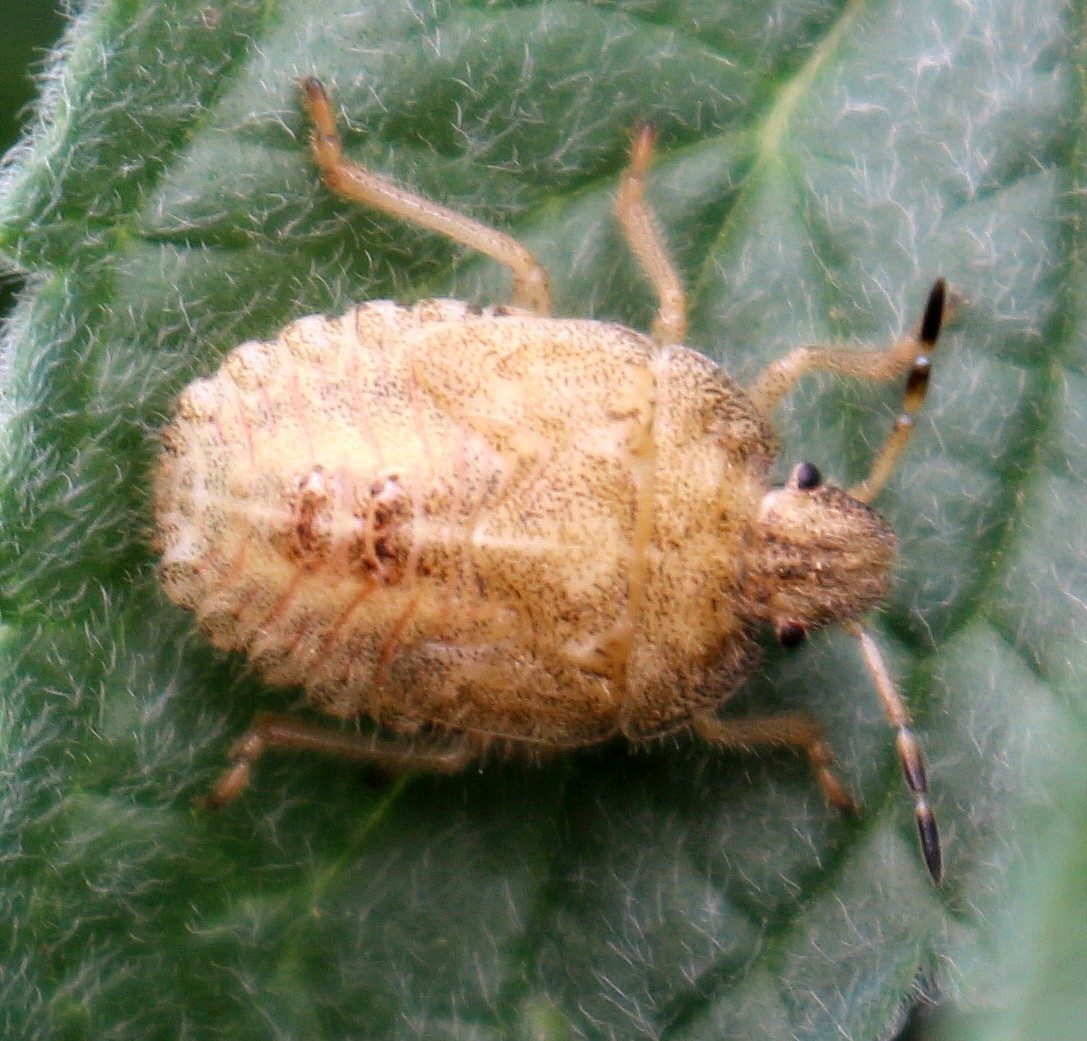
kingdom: Animalia
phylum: Arthropoda
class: Insecta
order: Hemiptera
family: Pentatomidae
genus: Dolycoris
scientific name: Dolycoris baccarum
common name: Sloe bug
